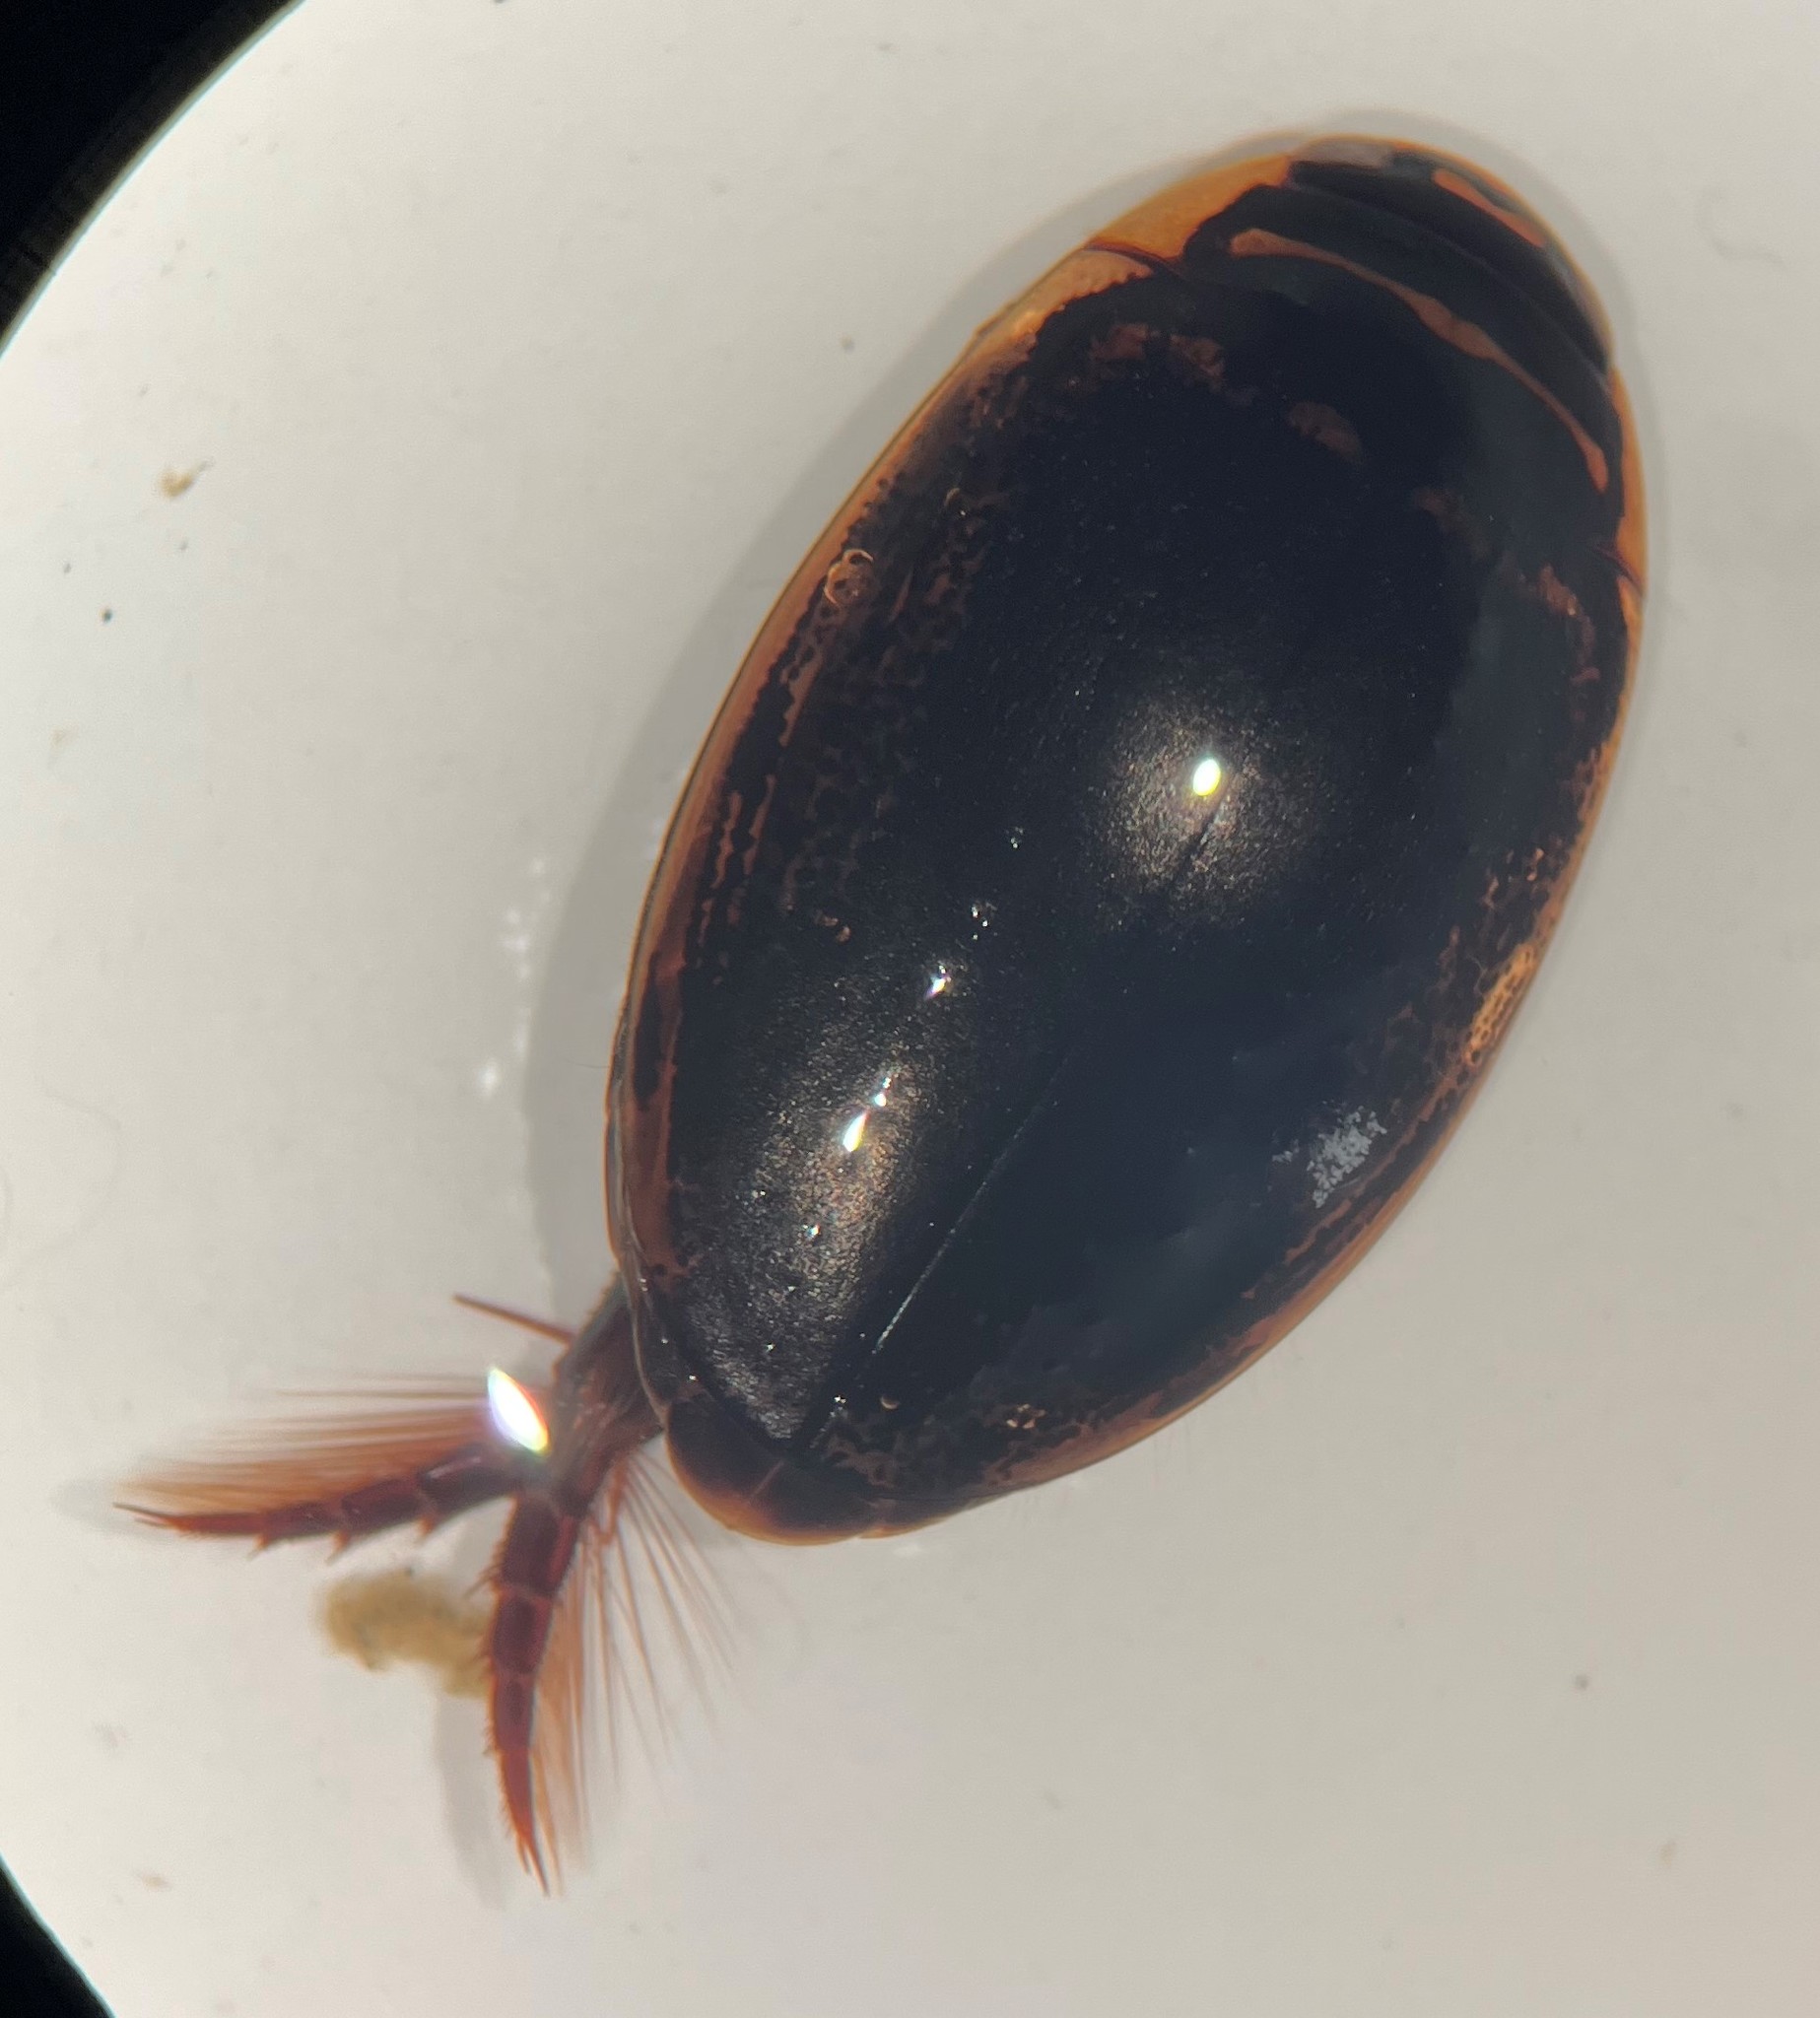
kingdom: Animalia
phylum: Arthropoda
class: Insecta
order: Coleoptera
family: Dytiscidae
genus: Thermonectus
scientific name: Thermonectus basillaris
